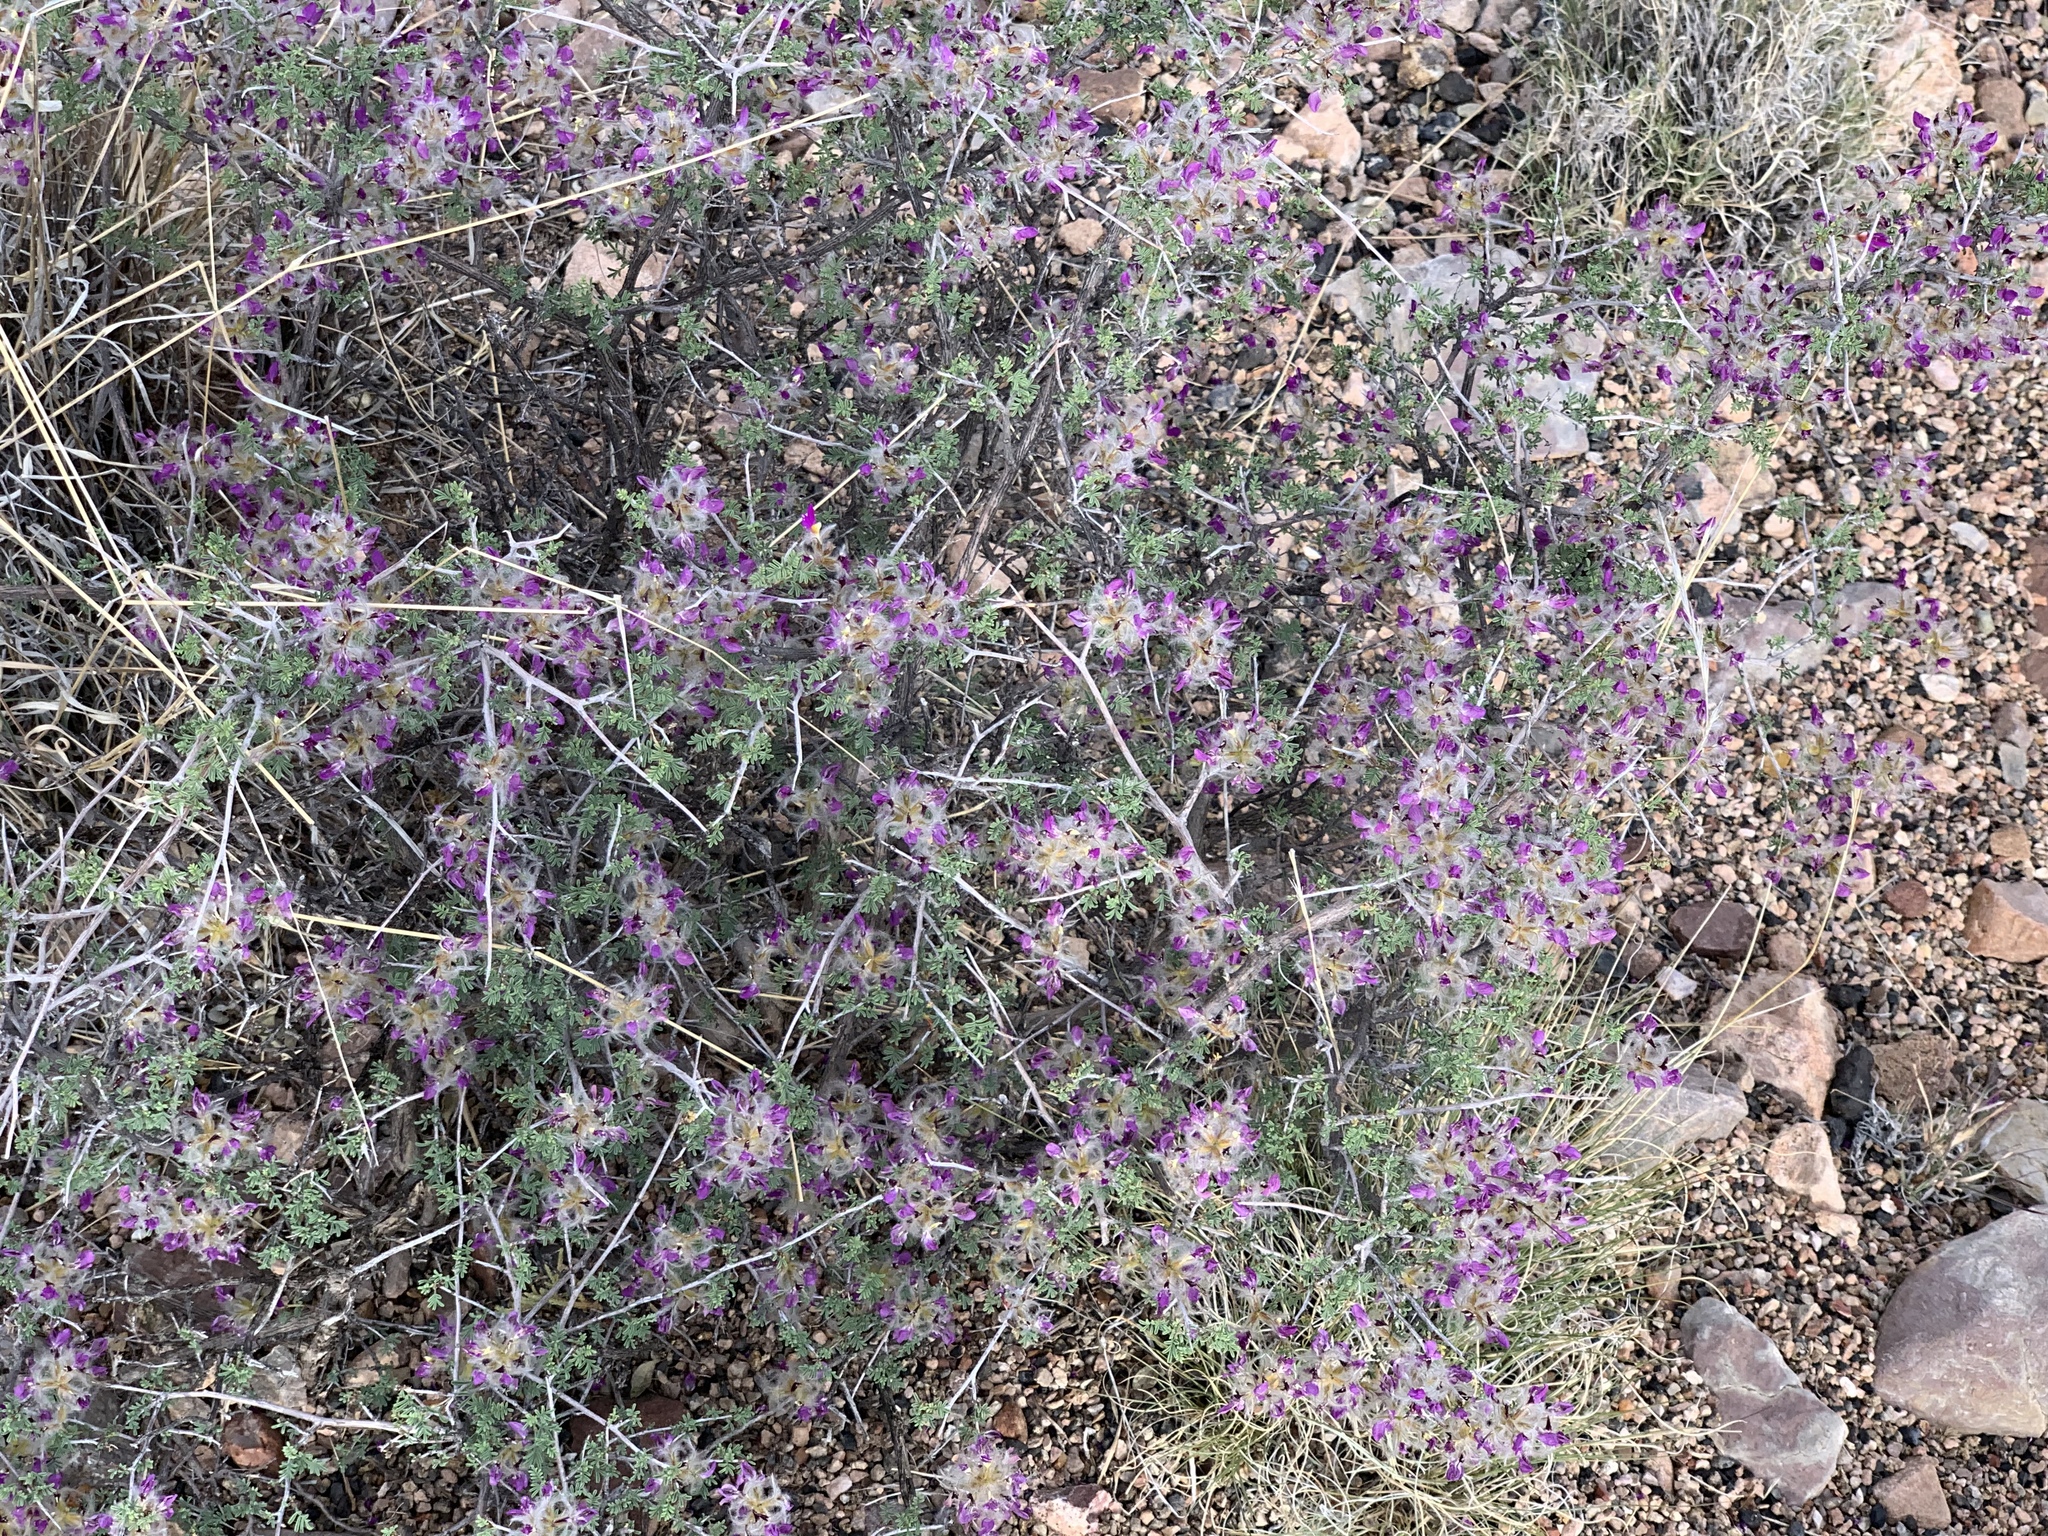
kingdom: Plantae
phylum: Tracheophyta
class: Magnoliopsida
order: Fabales
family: Fabaceae
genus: Dalea
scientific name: Dalea formosa
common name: Feather-plume dalea
